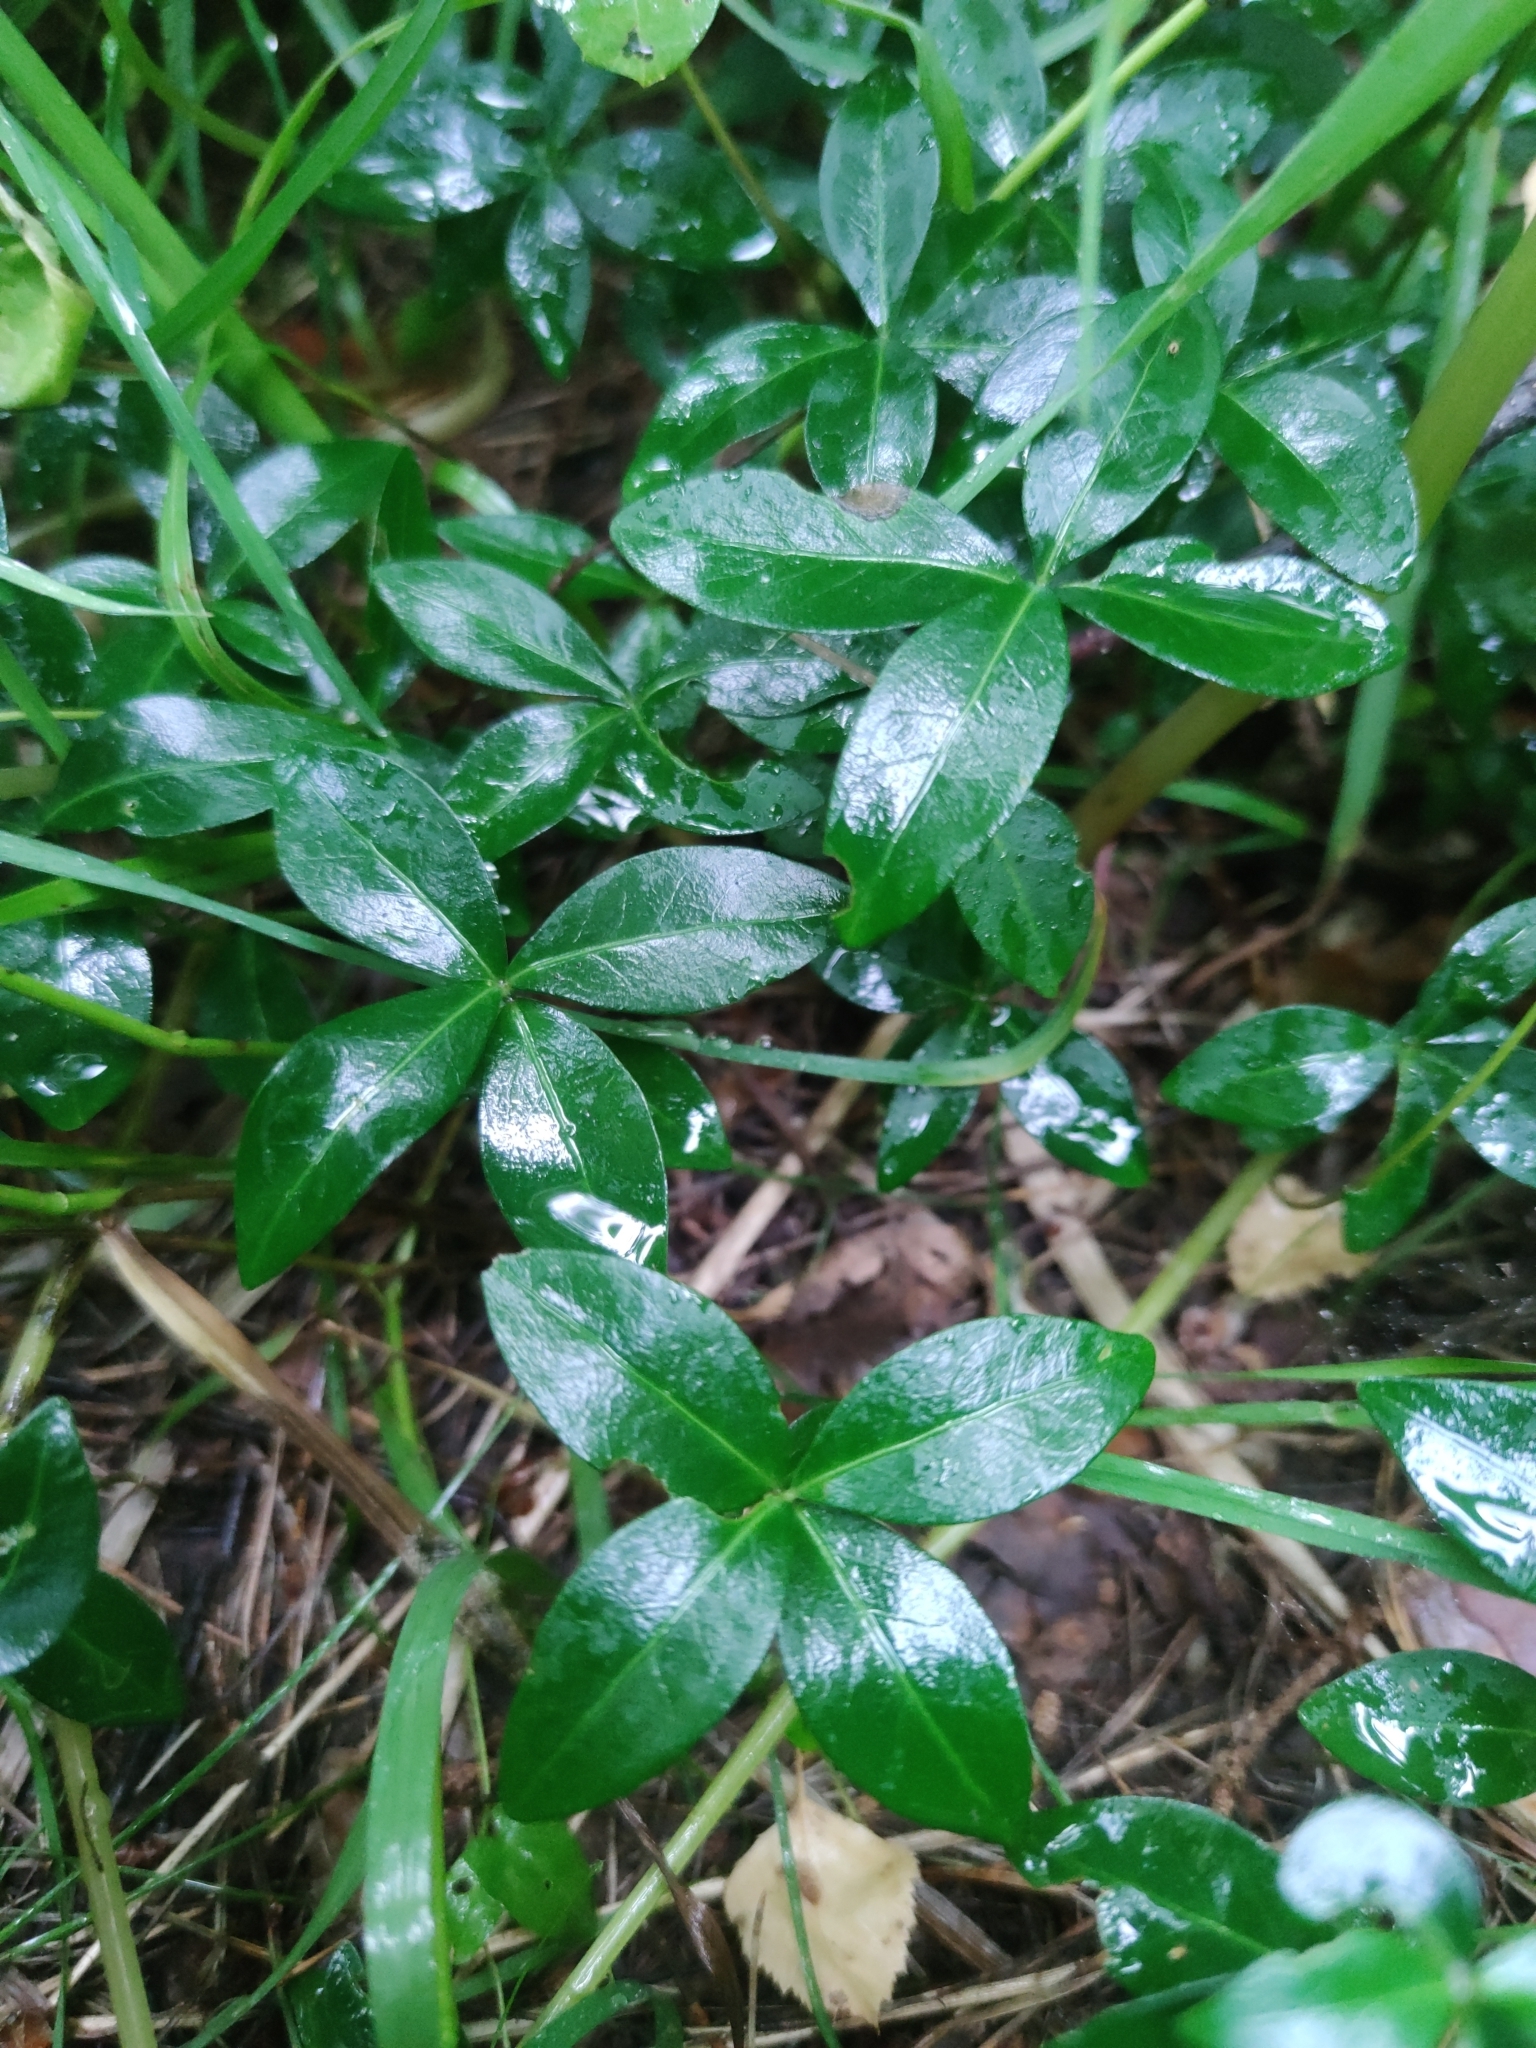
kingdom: Plantae
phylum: Tracheophyta
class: Magnoliopsida
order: Gentianales
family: Apocynaceae
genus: Vinca
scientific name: Vinca minor
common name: Lesser periwinkle
